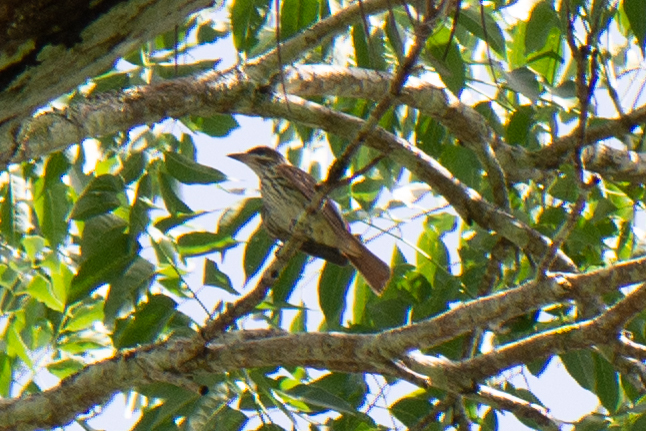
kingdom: Animalia
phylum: Chordata
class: Aves
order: Passeriformes
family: Tyrannidae
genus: Myiodynastes
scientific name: Myiodynastes luteiventris
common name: Sulphur-bellied flycatcher
